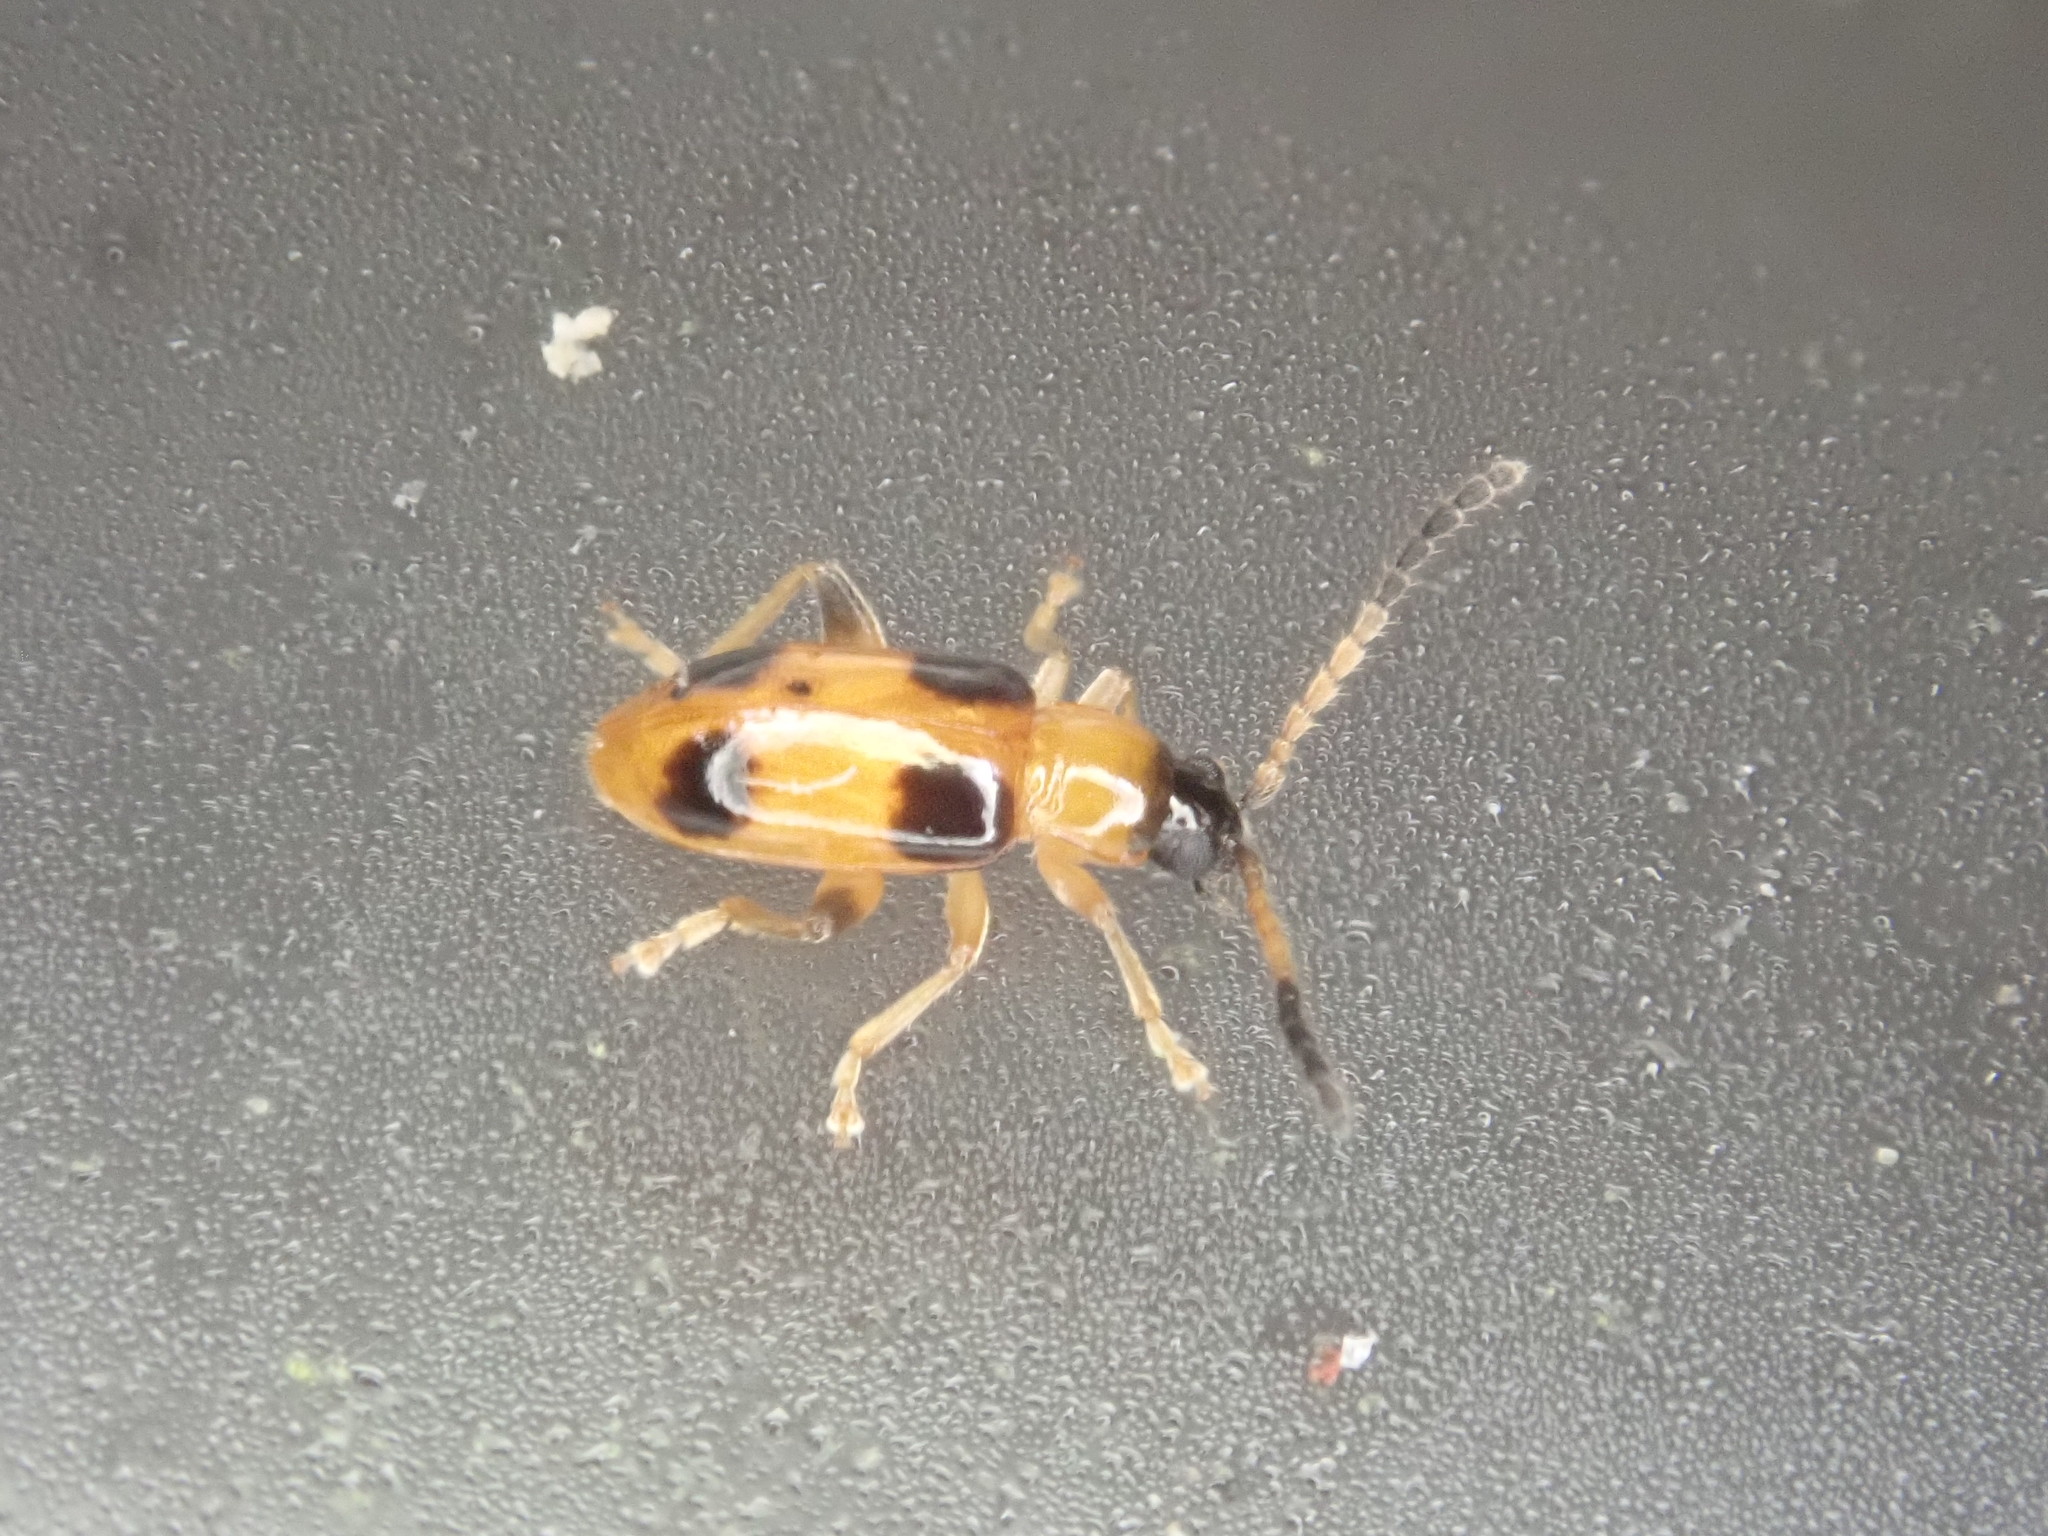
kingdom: Animalia
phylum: Arthropoda
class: Insecta
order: Coleoptera
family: Chrysomelidae
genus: Cornulactica
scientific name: Cornulactica
